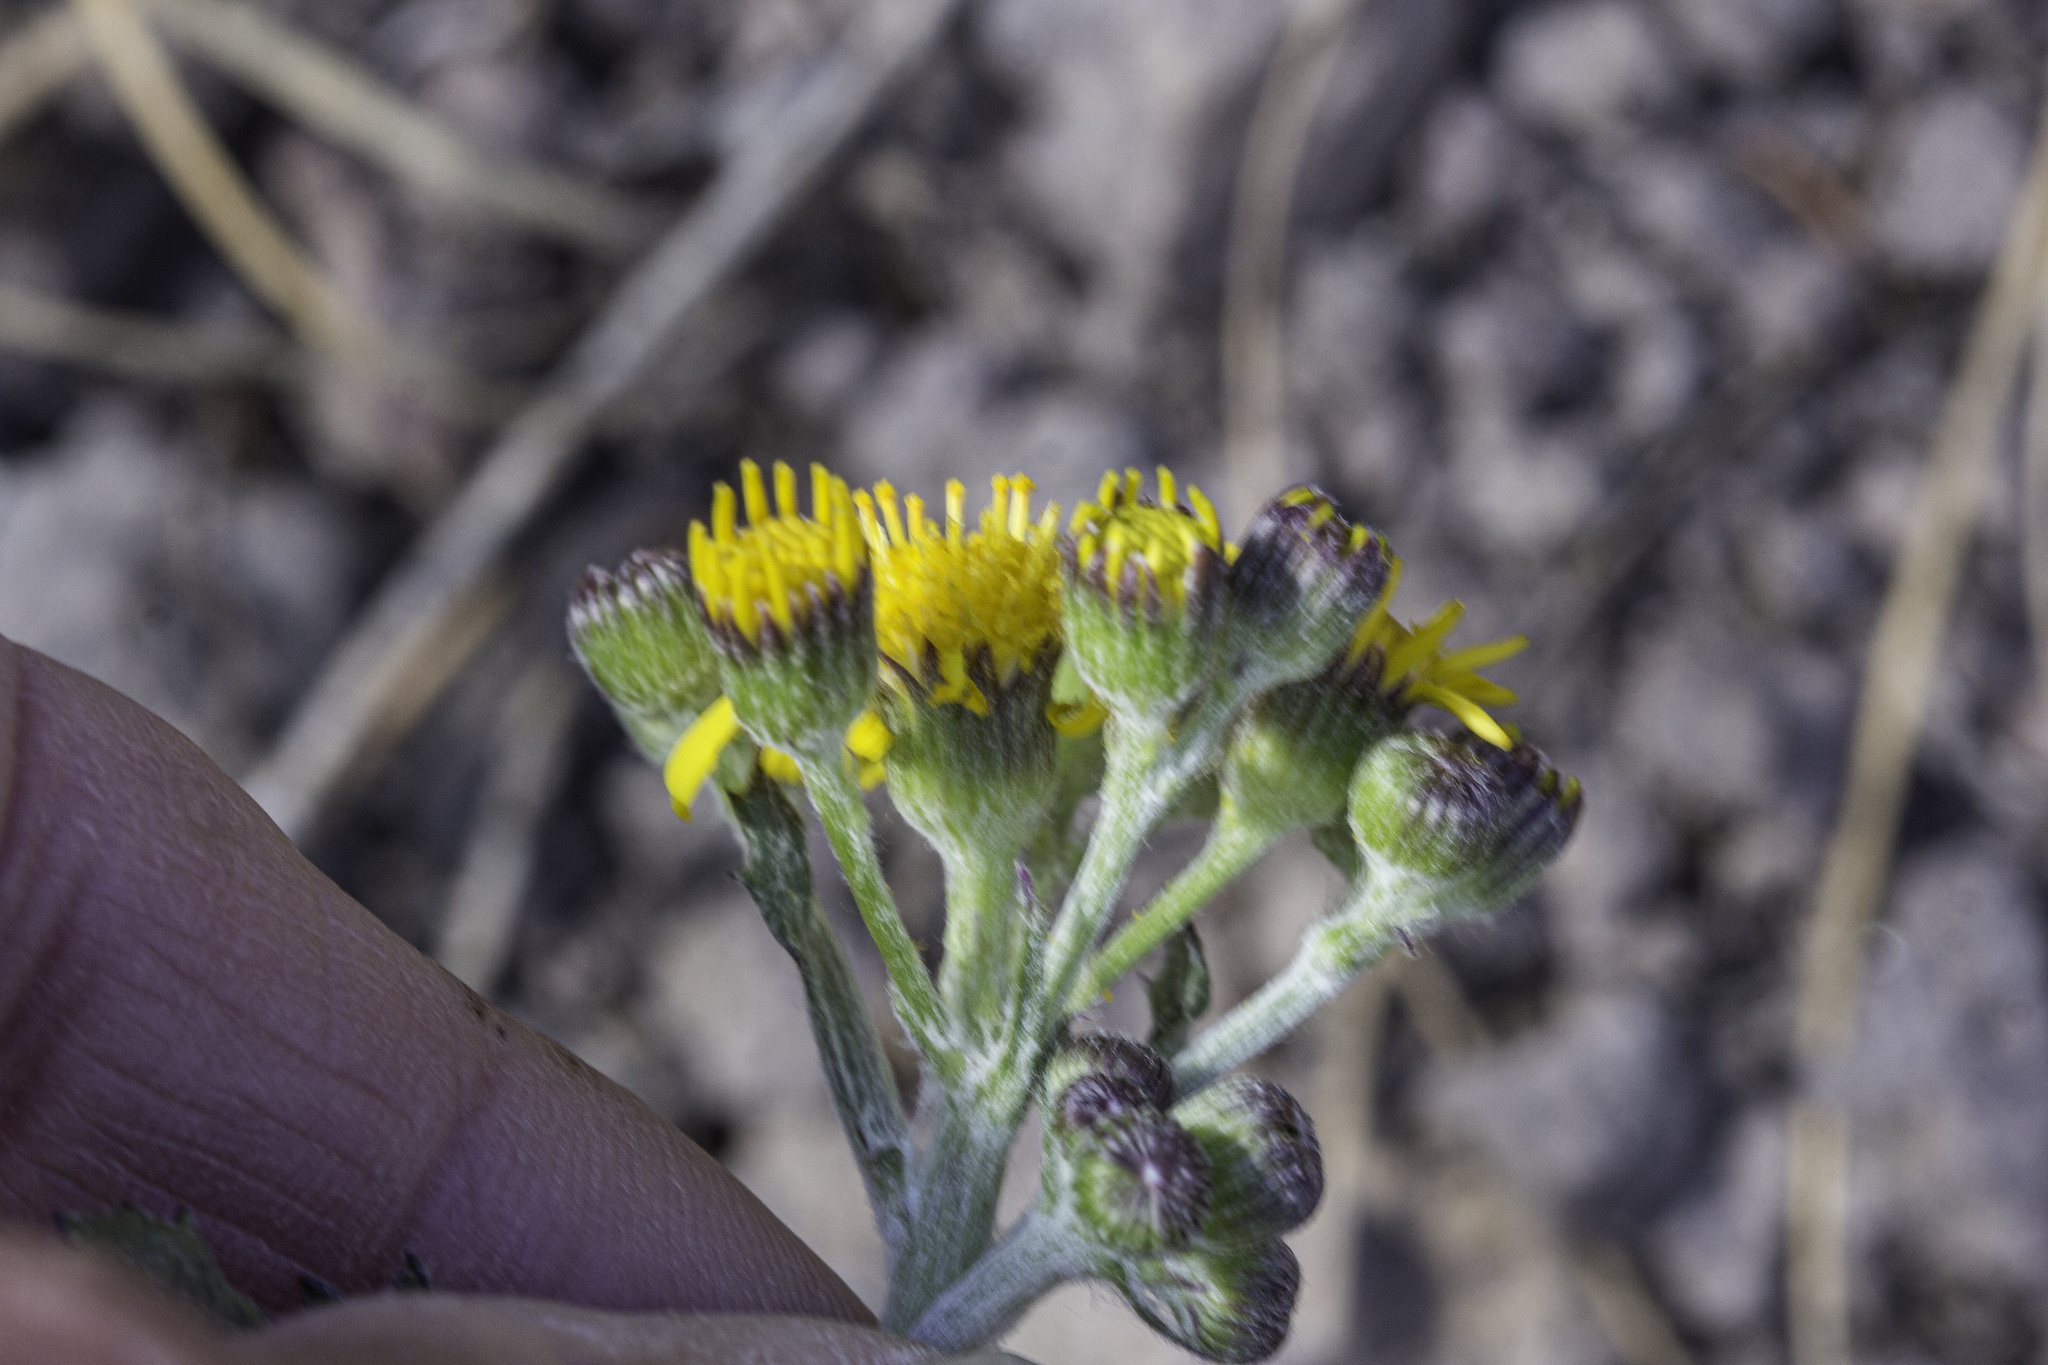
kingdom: Plantae
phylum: Tracheophyta
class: Magnoliopsida
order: Asterales
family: Asteraceae
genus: Packera
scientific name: Packera neomexicana
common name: New mexico butterweed
